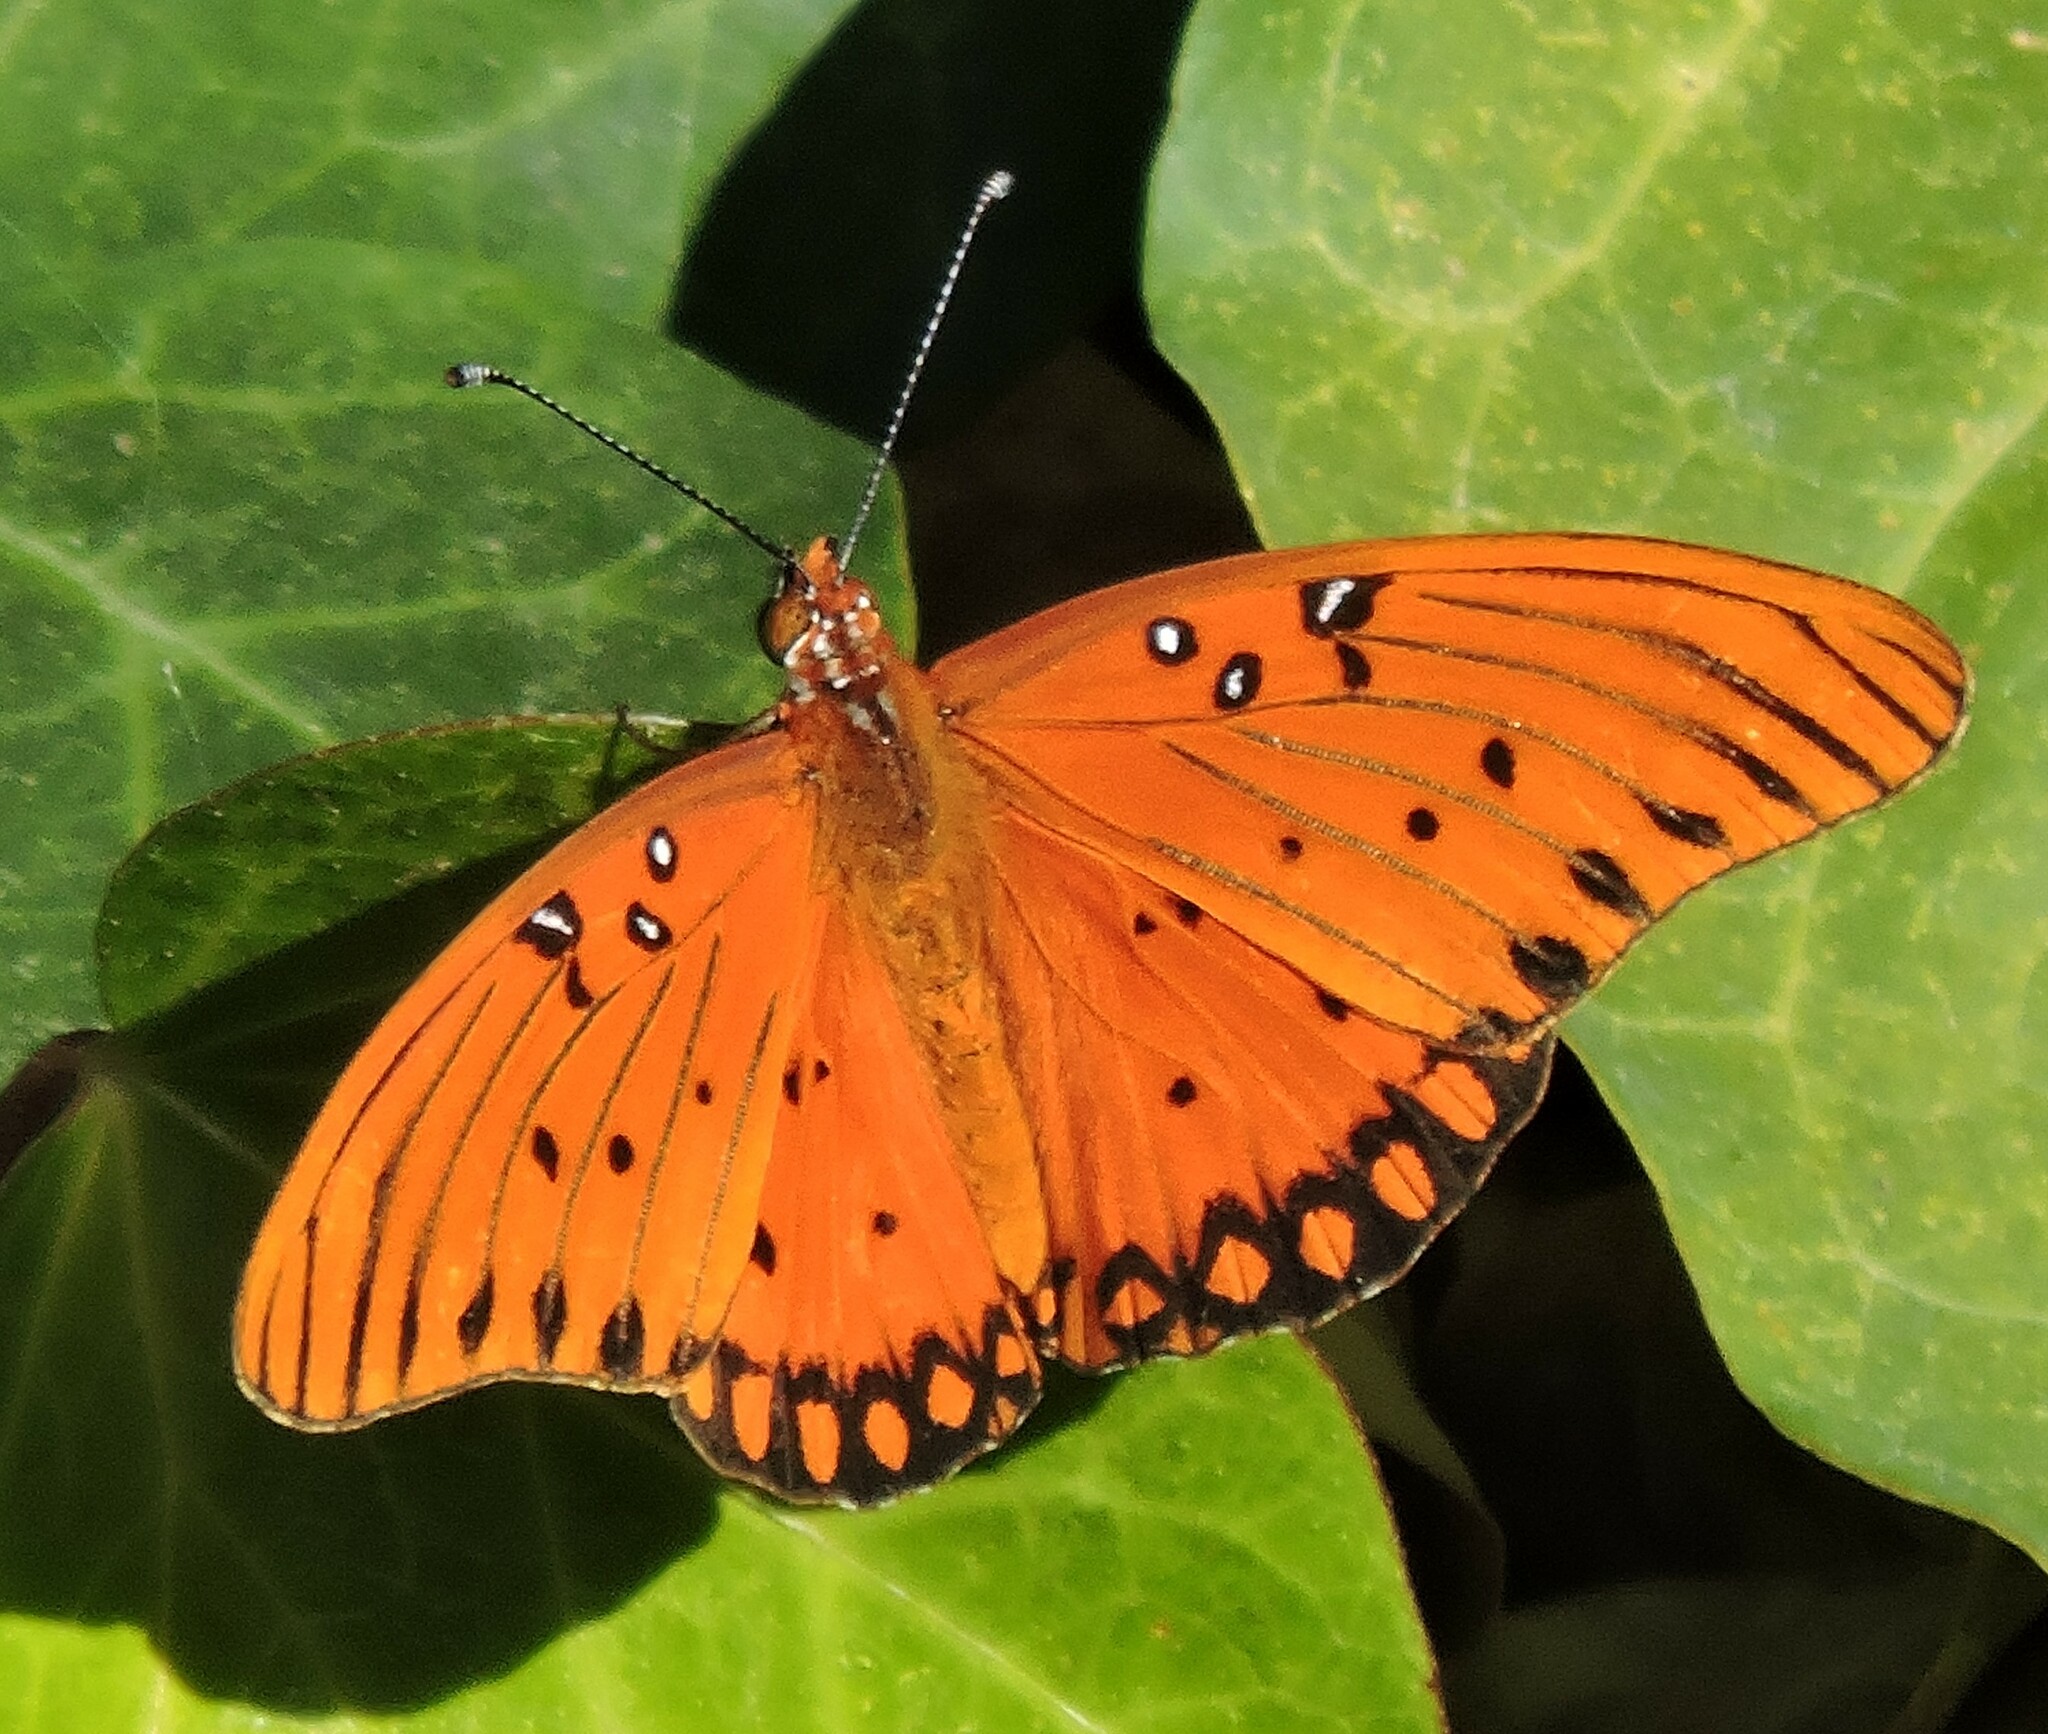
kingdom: Animalia
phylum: Arthropoda
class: Insecta
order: Lepidoptera
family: Nymphalidae
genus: Dione
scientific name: Dione vanillae
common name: Gulf fritillary
